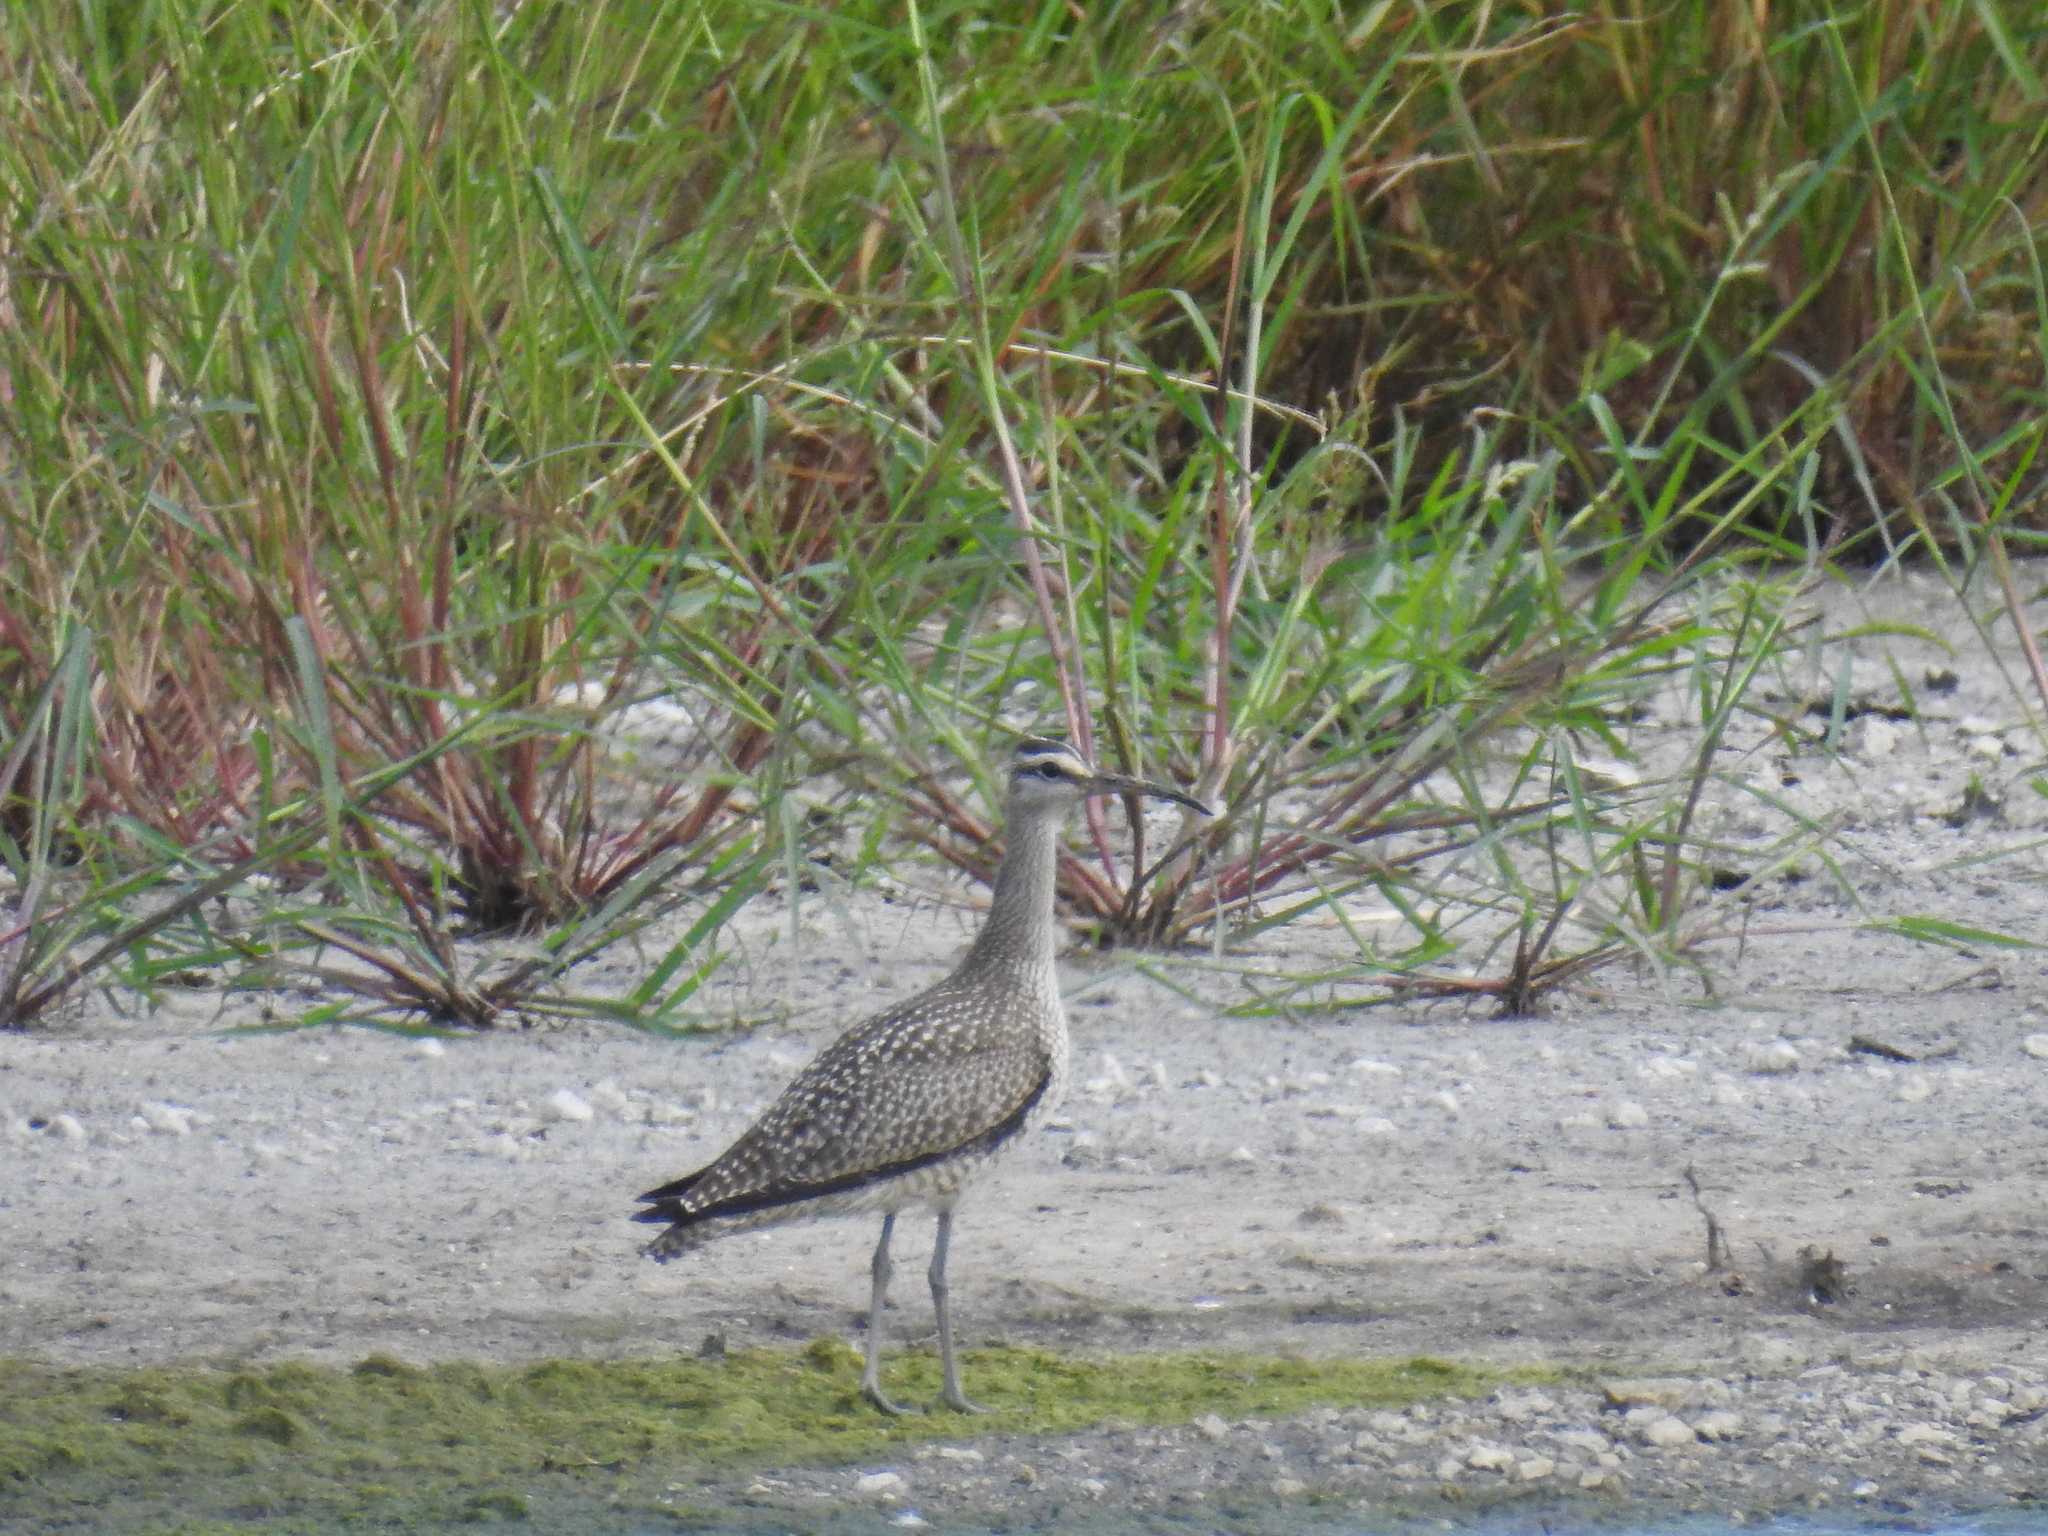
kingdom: Animalia
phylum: Chordata
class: Aves
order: Charadriiformes
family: Scolopacidae
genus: Numenius
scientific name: Numenius phaeopus
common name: Whimbrel
